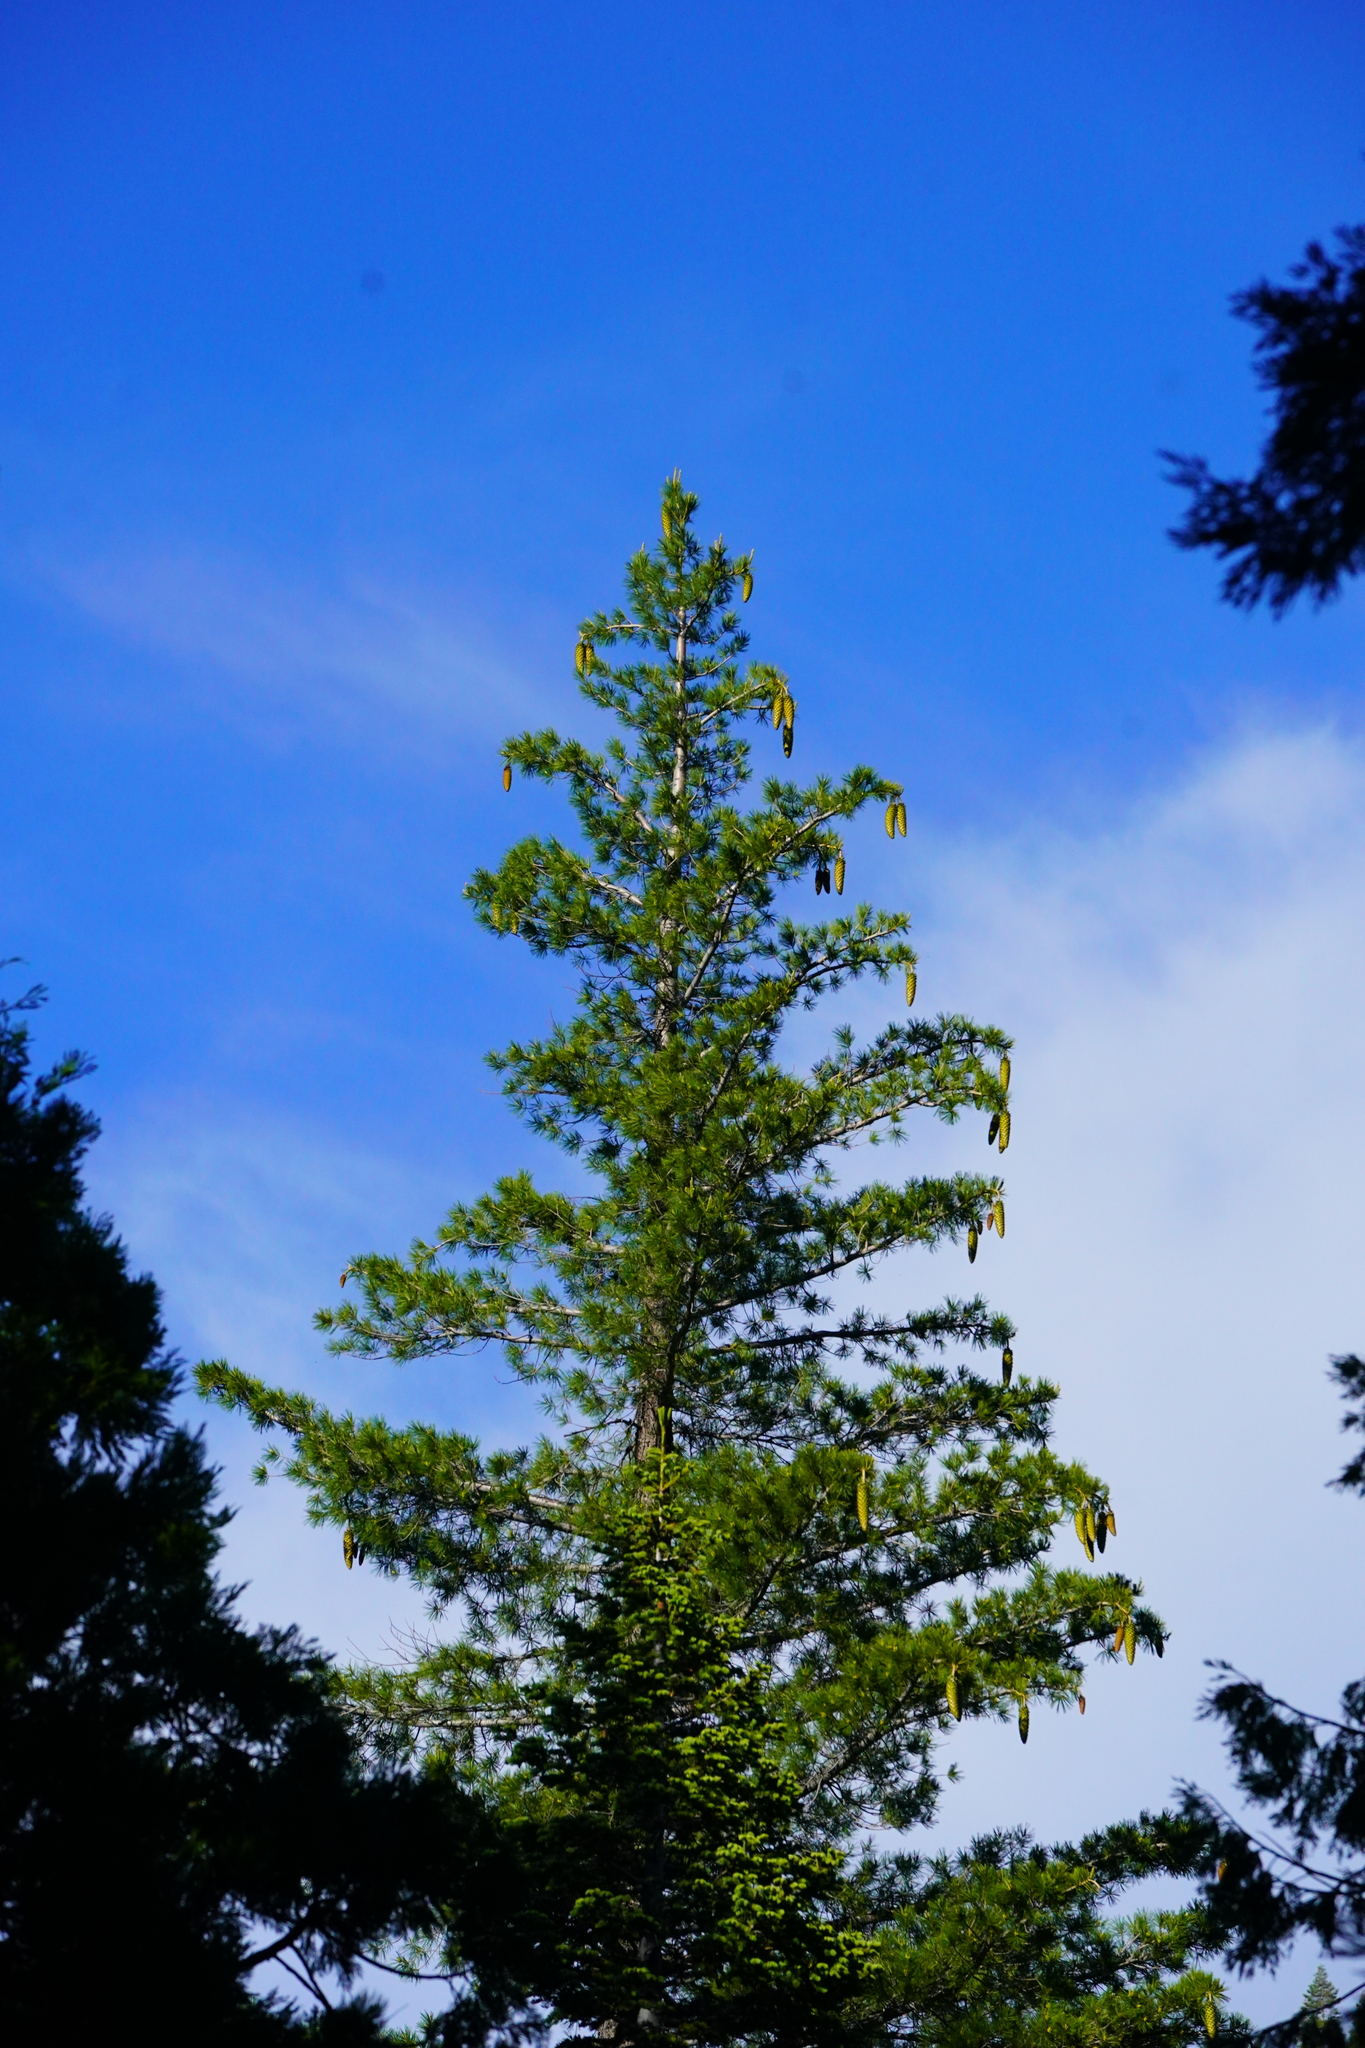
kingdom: Plantae
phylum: Tracheophyta
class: Pinopsida
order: Pinales
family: Pinaceae
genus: Pinus
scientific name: Pinus lambertiana
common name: Sugar pine
